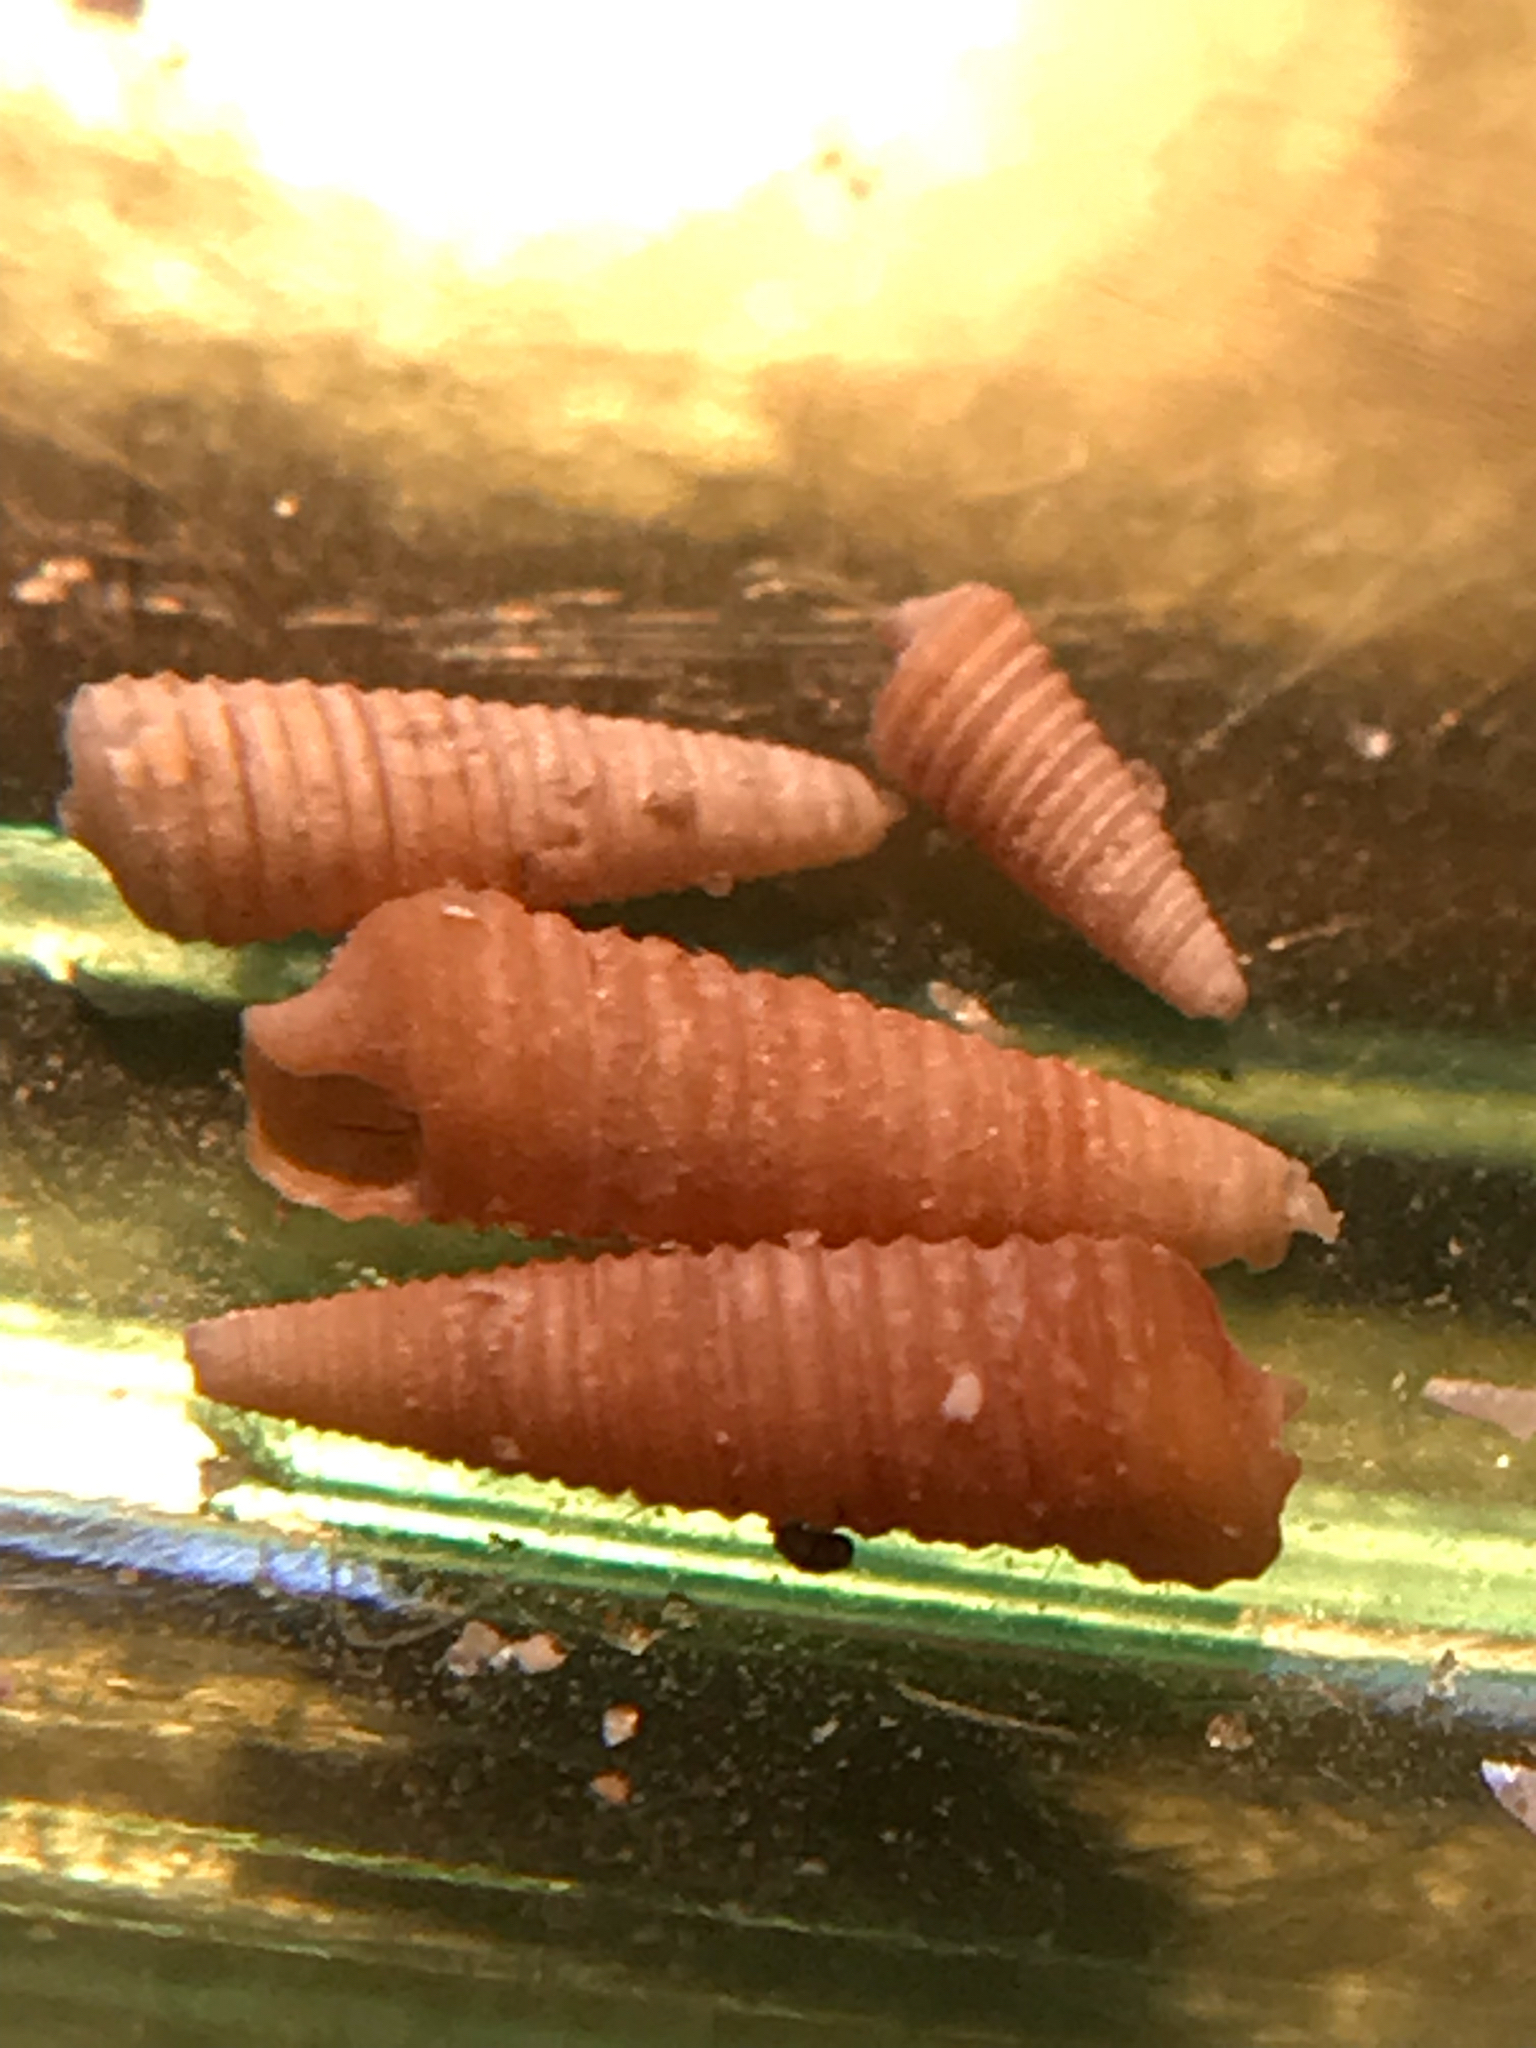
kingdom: Animalia
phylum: Mollusca
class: Gastropoda
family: Cerithiopsidae
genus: Seila
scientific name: Seila adamsii
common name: Adam's miniature cerith
